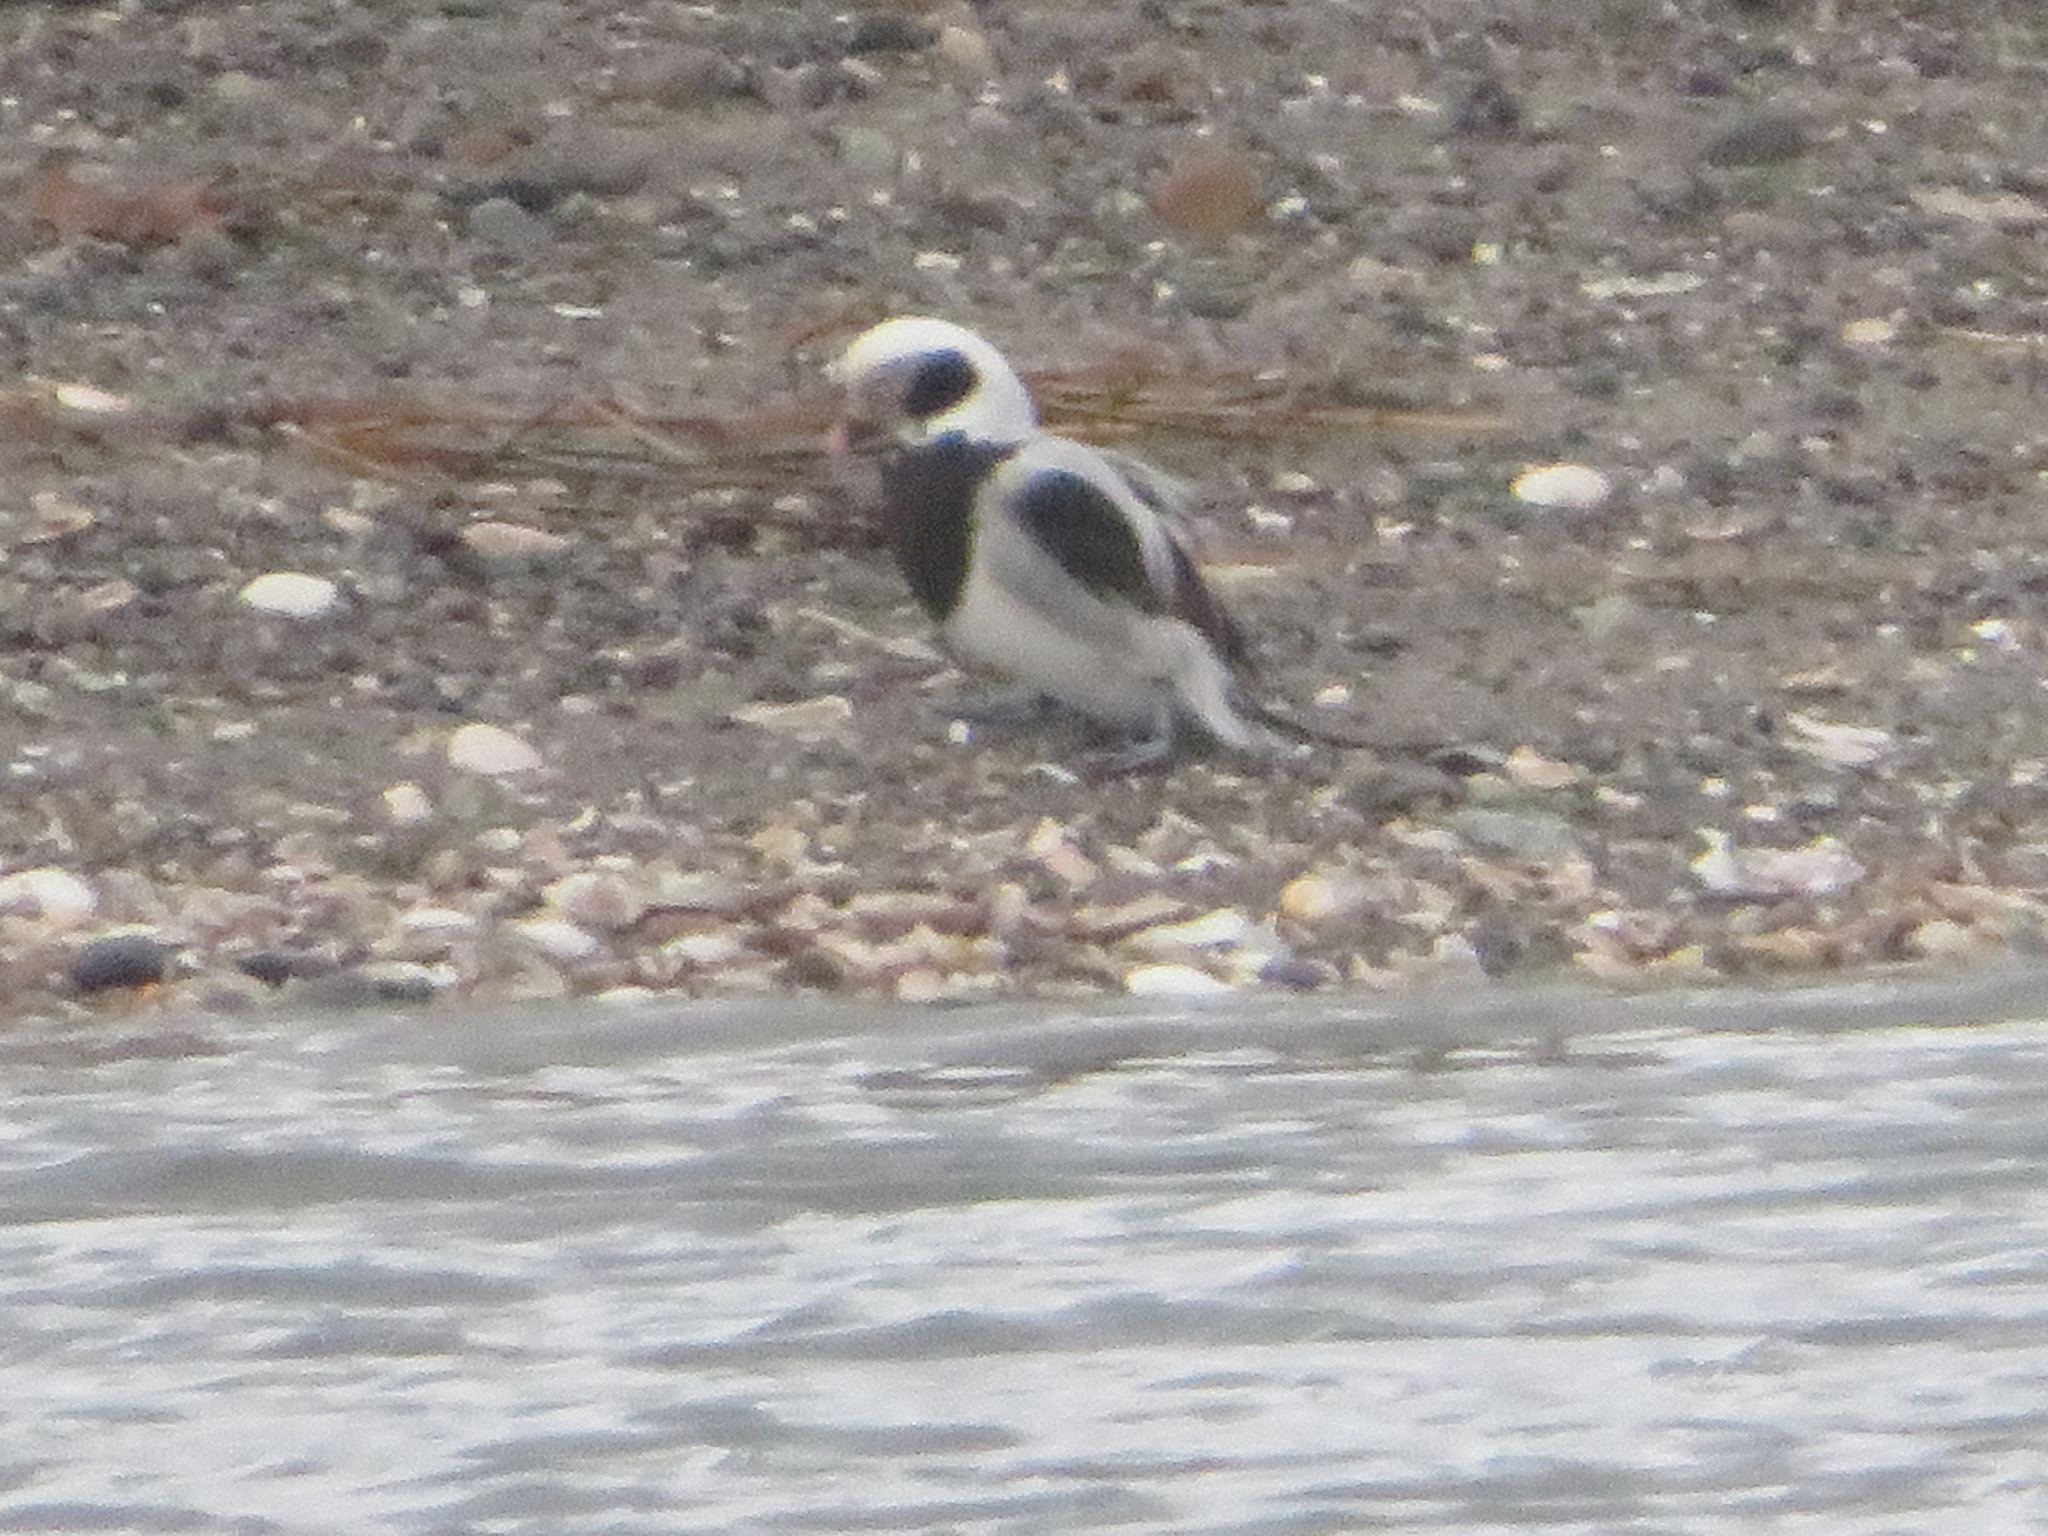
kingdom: Animalia
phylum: Chordata
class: Aves
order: Anseriformes
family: Anatidae
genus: Clangula
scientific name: Clangula hyemalis
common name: Long-tailed duck
